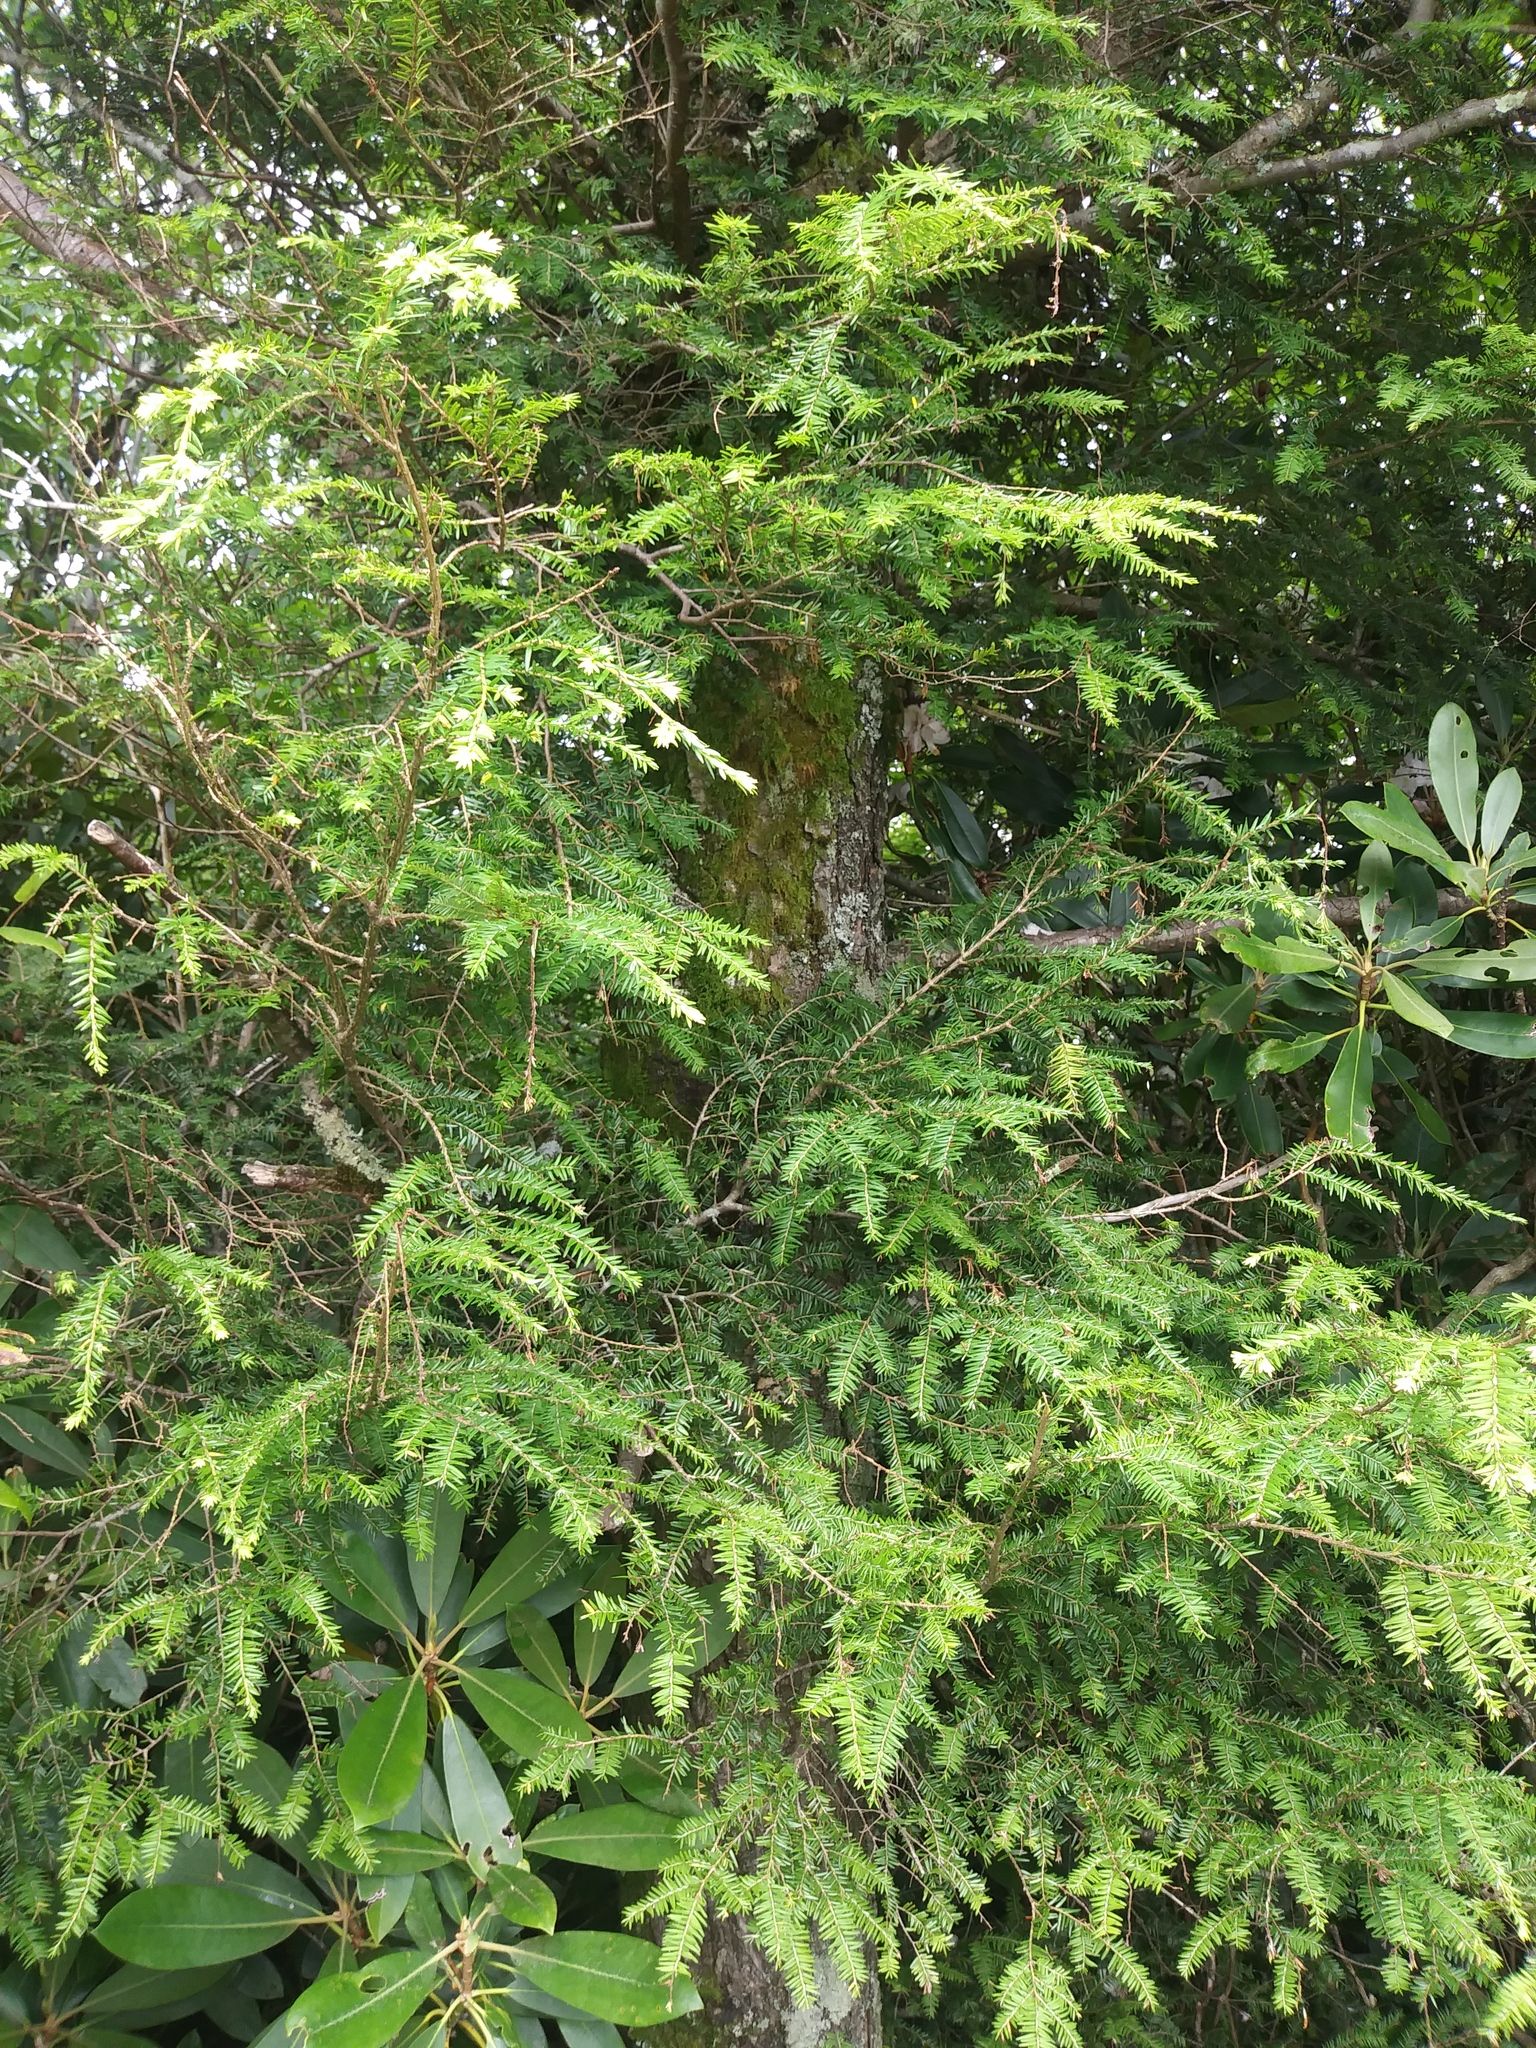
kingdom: Plantae
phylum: Tracheophyta
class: Pinopsida
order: Pinales
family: Pinaceae
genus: Tsuga
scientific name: Tsuga canadensis
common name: Eastern hemlock
